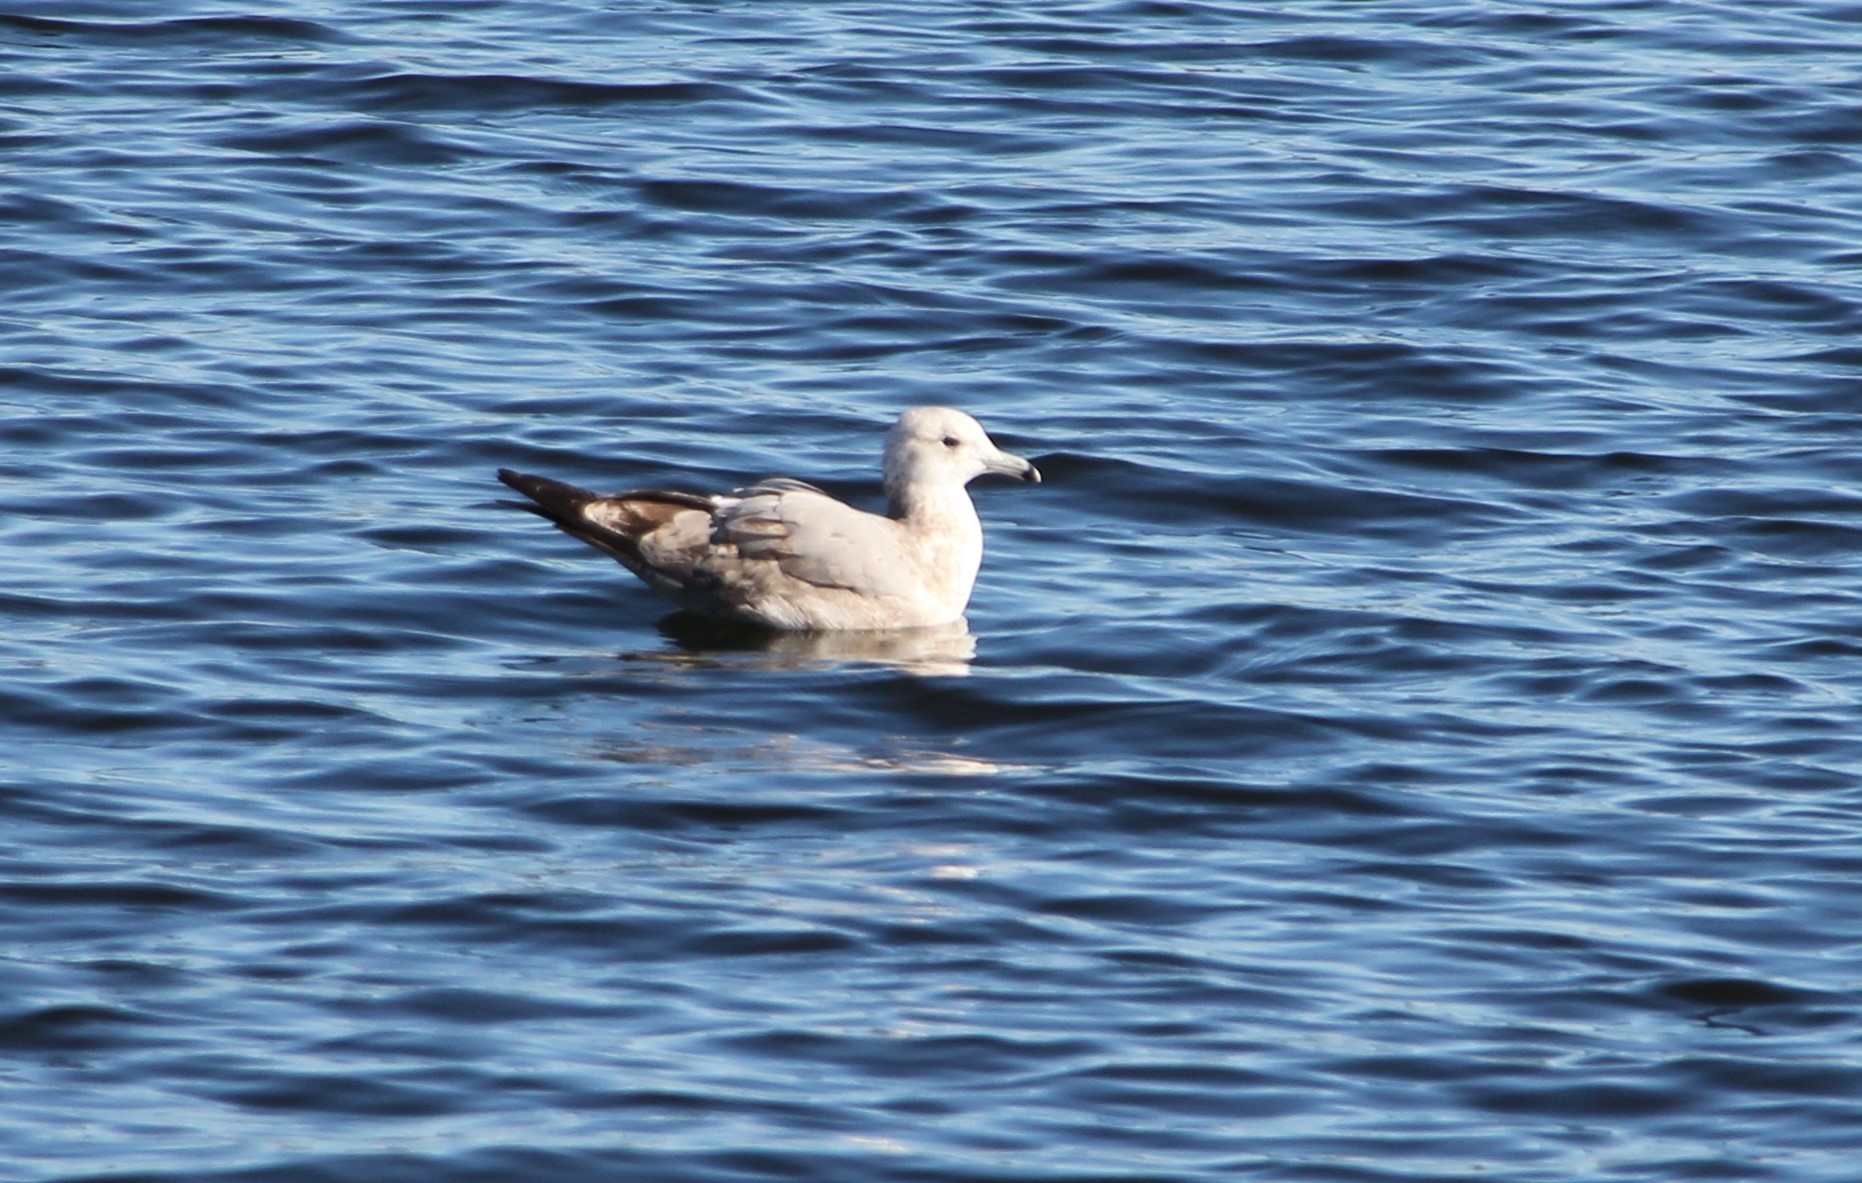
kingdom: Animalia
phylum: Chordata
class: Aves
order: Charadriiformes
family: Laridae
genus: Larus
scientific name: Larus californicus
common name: California gull
